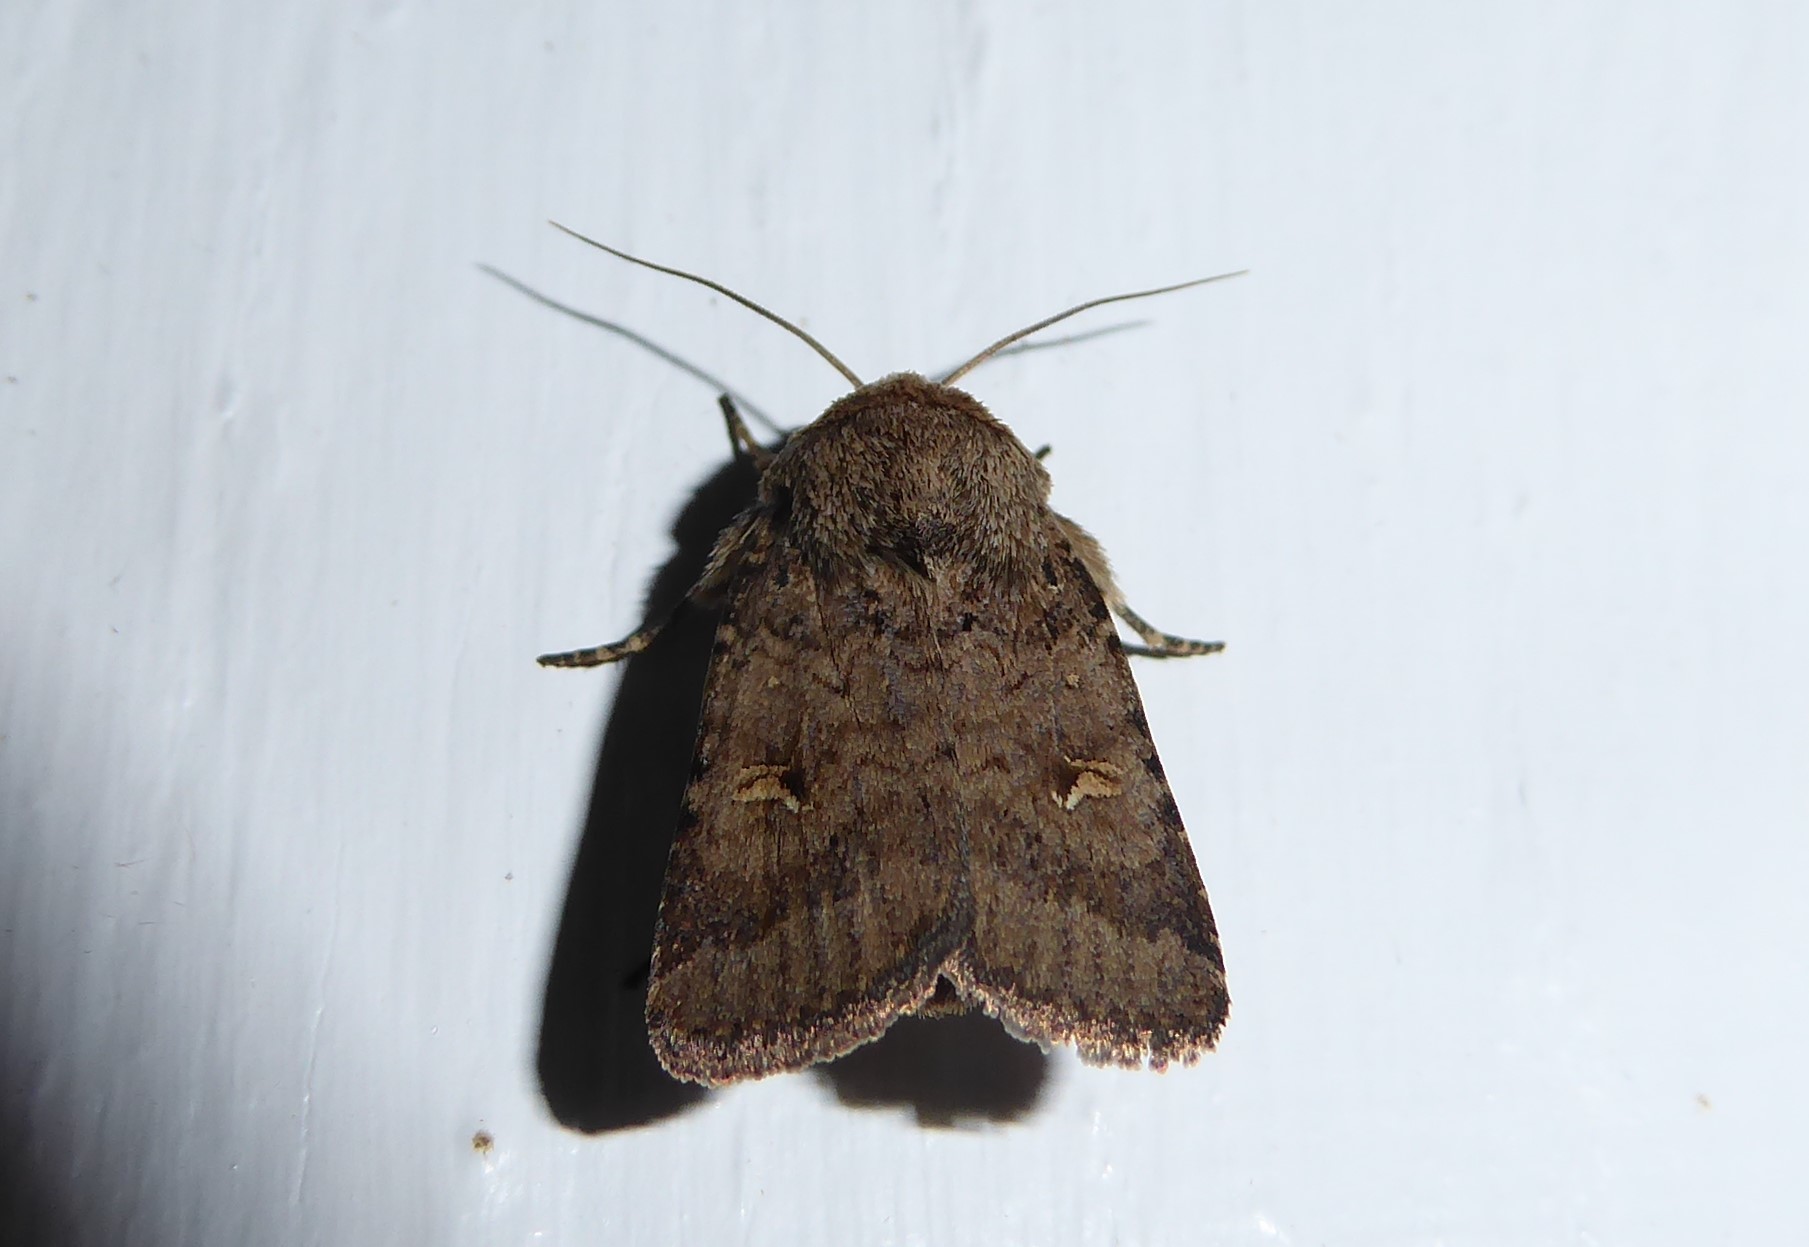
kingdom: Animalia
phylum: Arthropoda
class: Insecta
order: Lepidoptera
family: Noctuidae
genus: Proteuxoa
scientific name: Proteuxoa tetronycha
